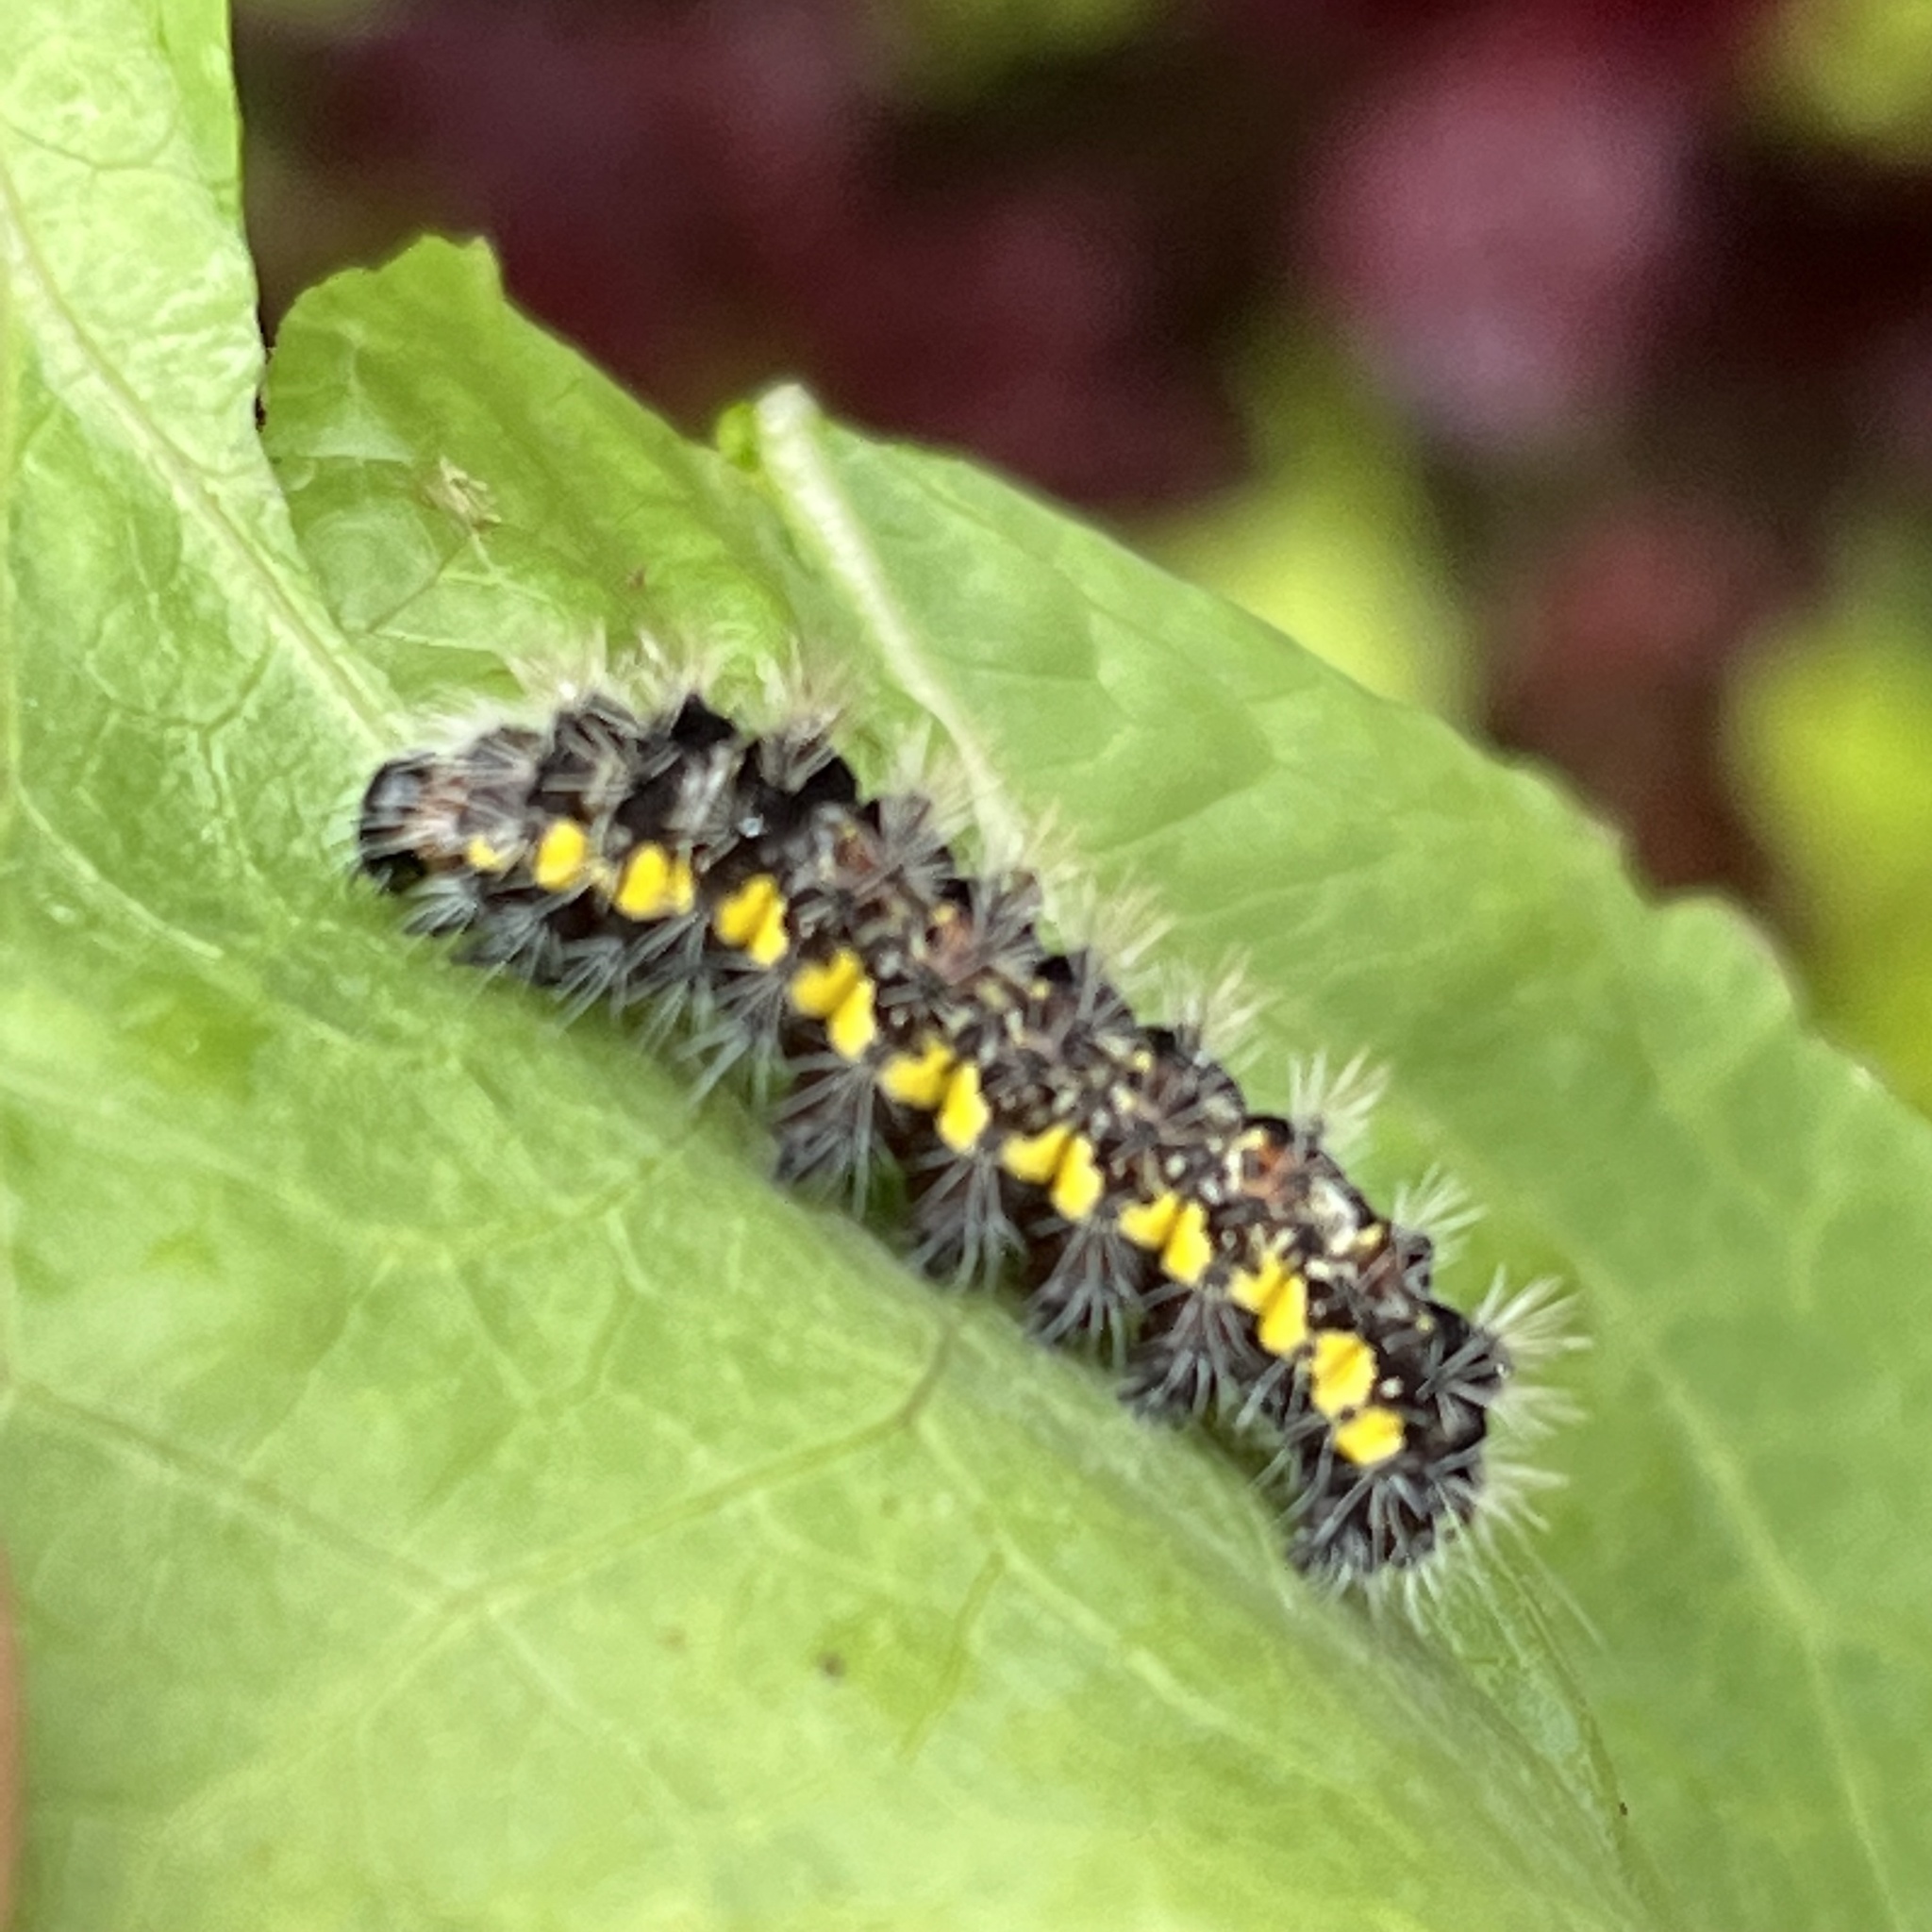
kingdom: Animalia
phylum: Arthropoda
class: Insecta
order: Lepidoptera
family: Noctuidae
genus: Acronicta
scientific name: Acronicta oblinita
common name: Smeared dagger
